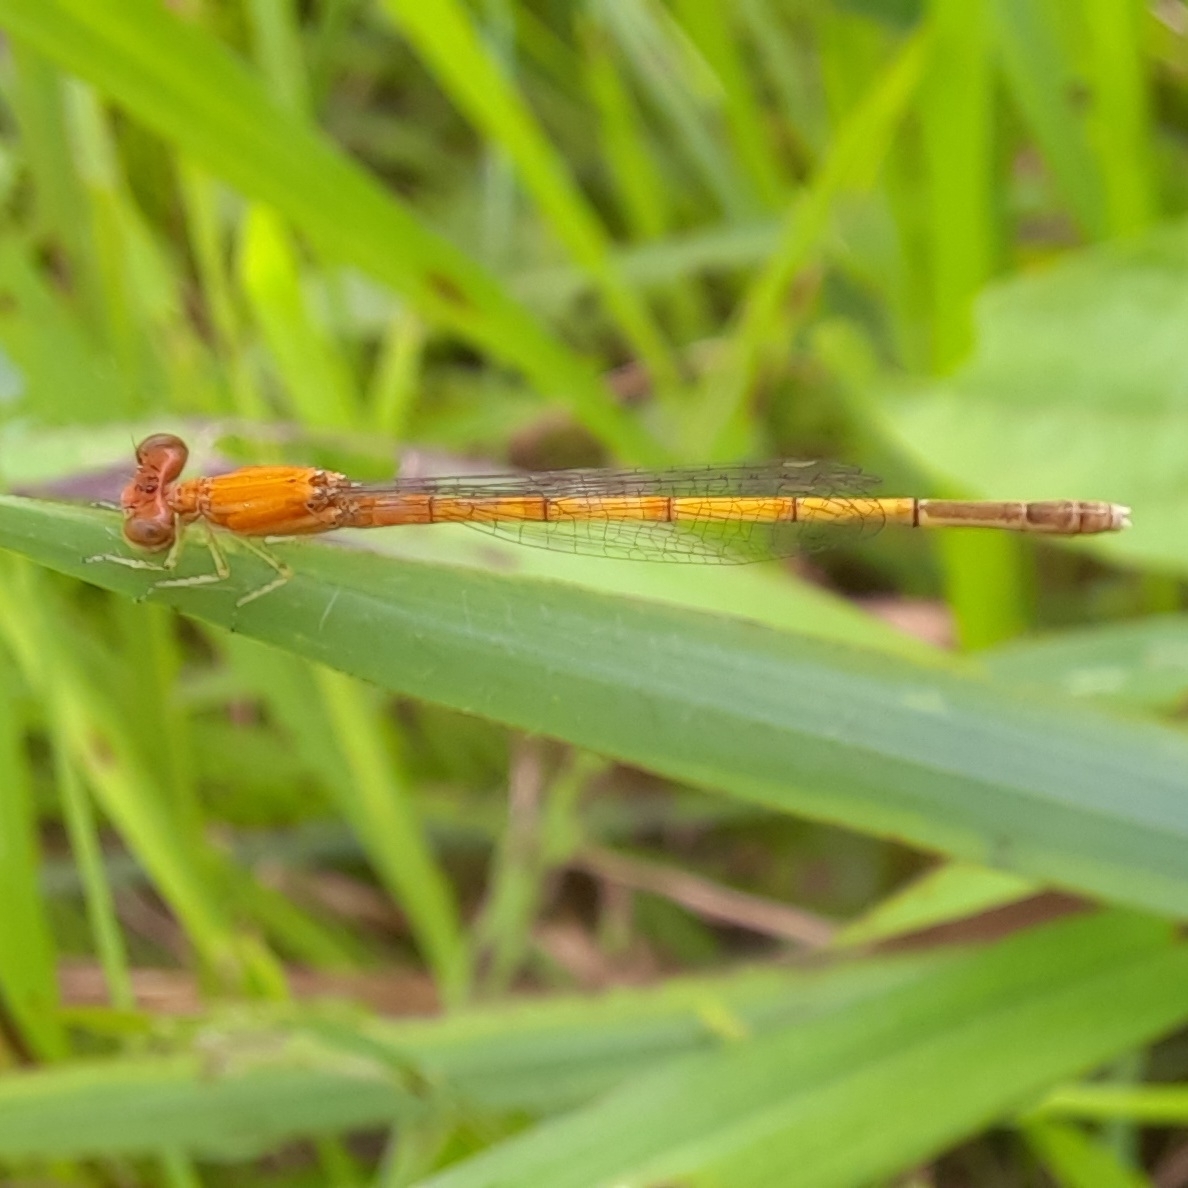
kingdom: Animalia
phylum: Arthropoda
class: Insecta
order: Odonata
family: Coenagrionidae
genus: Agriocnemis
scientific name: Agriocnemis pieris
